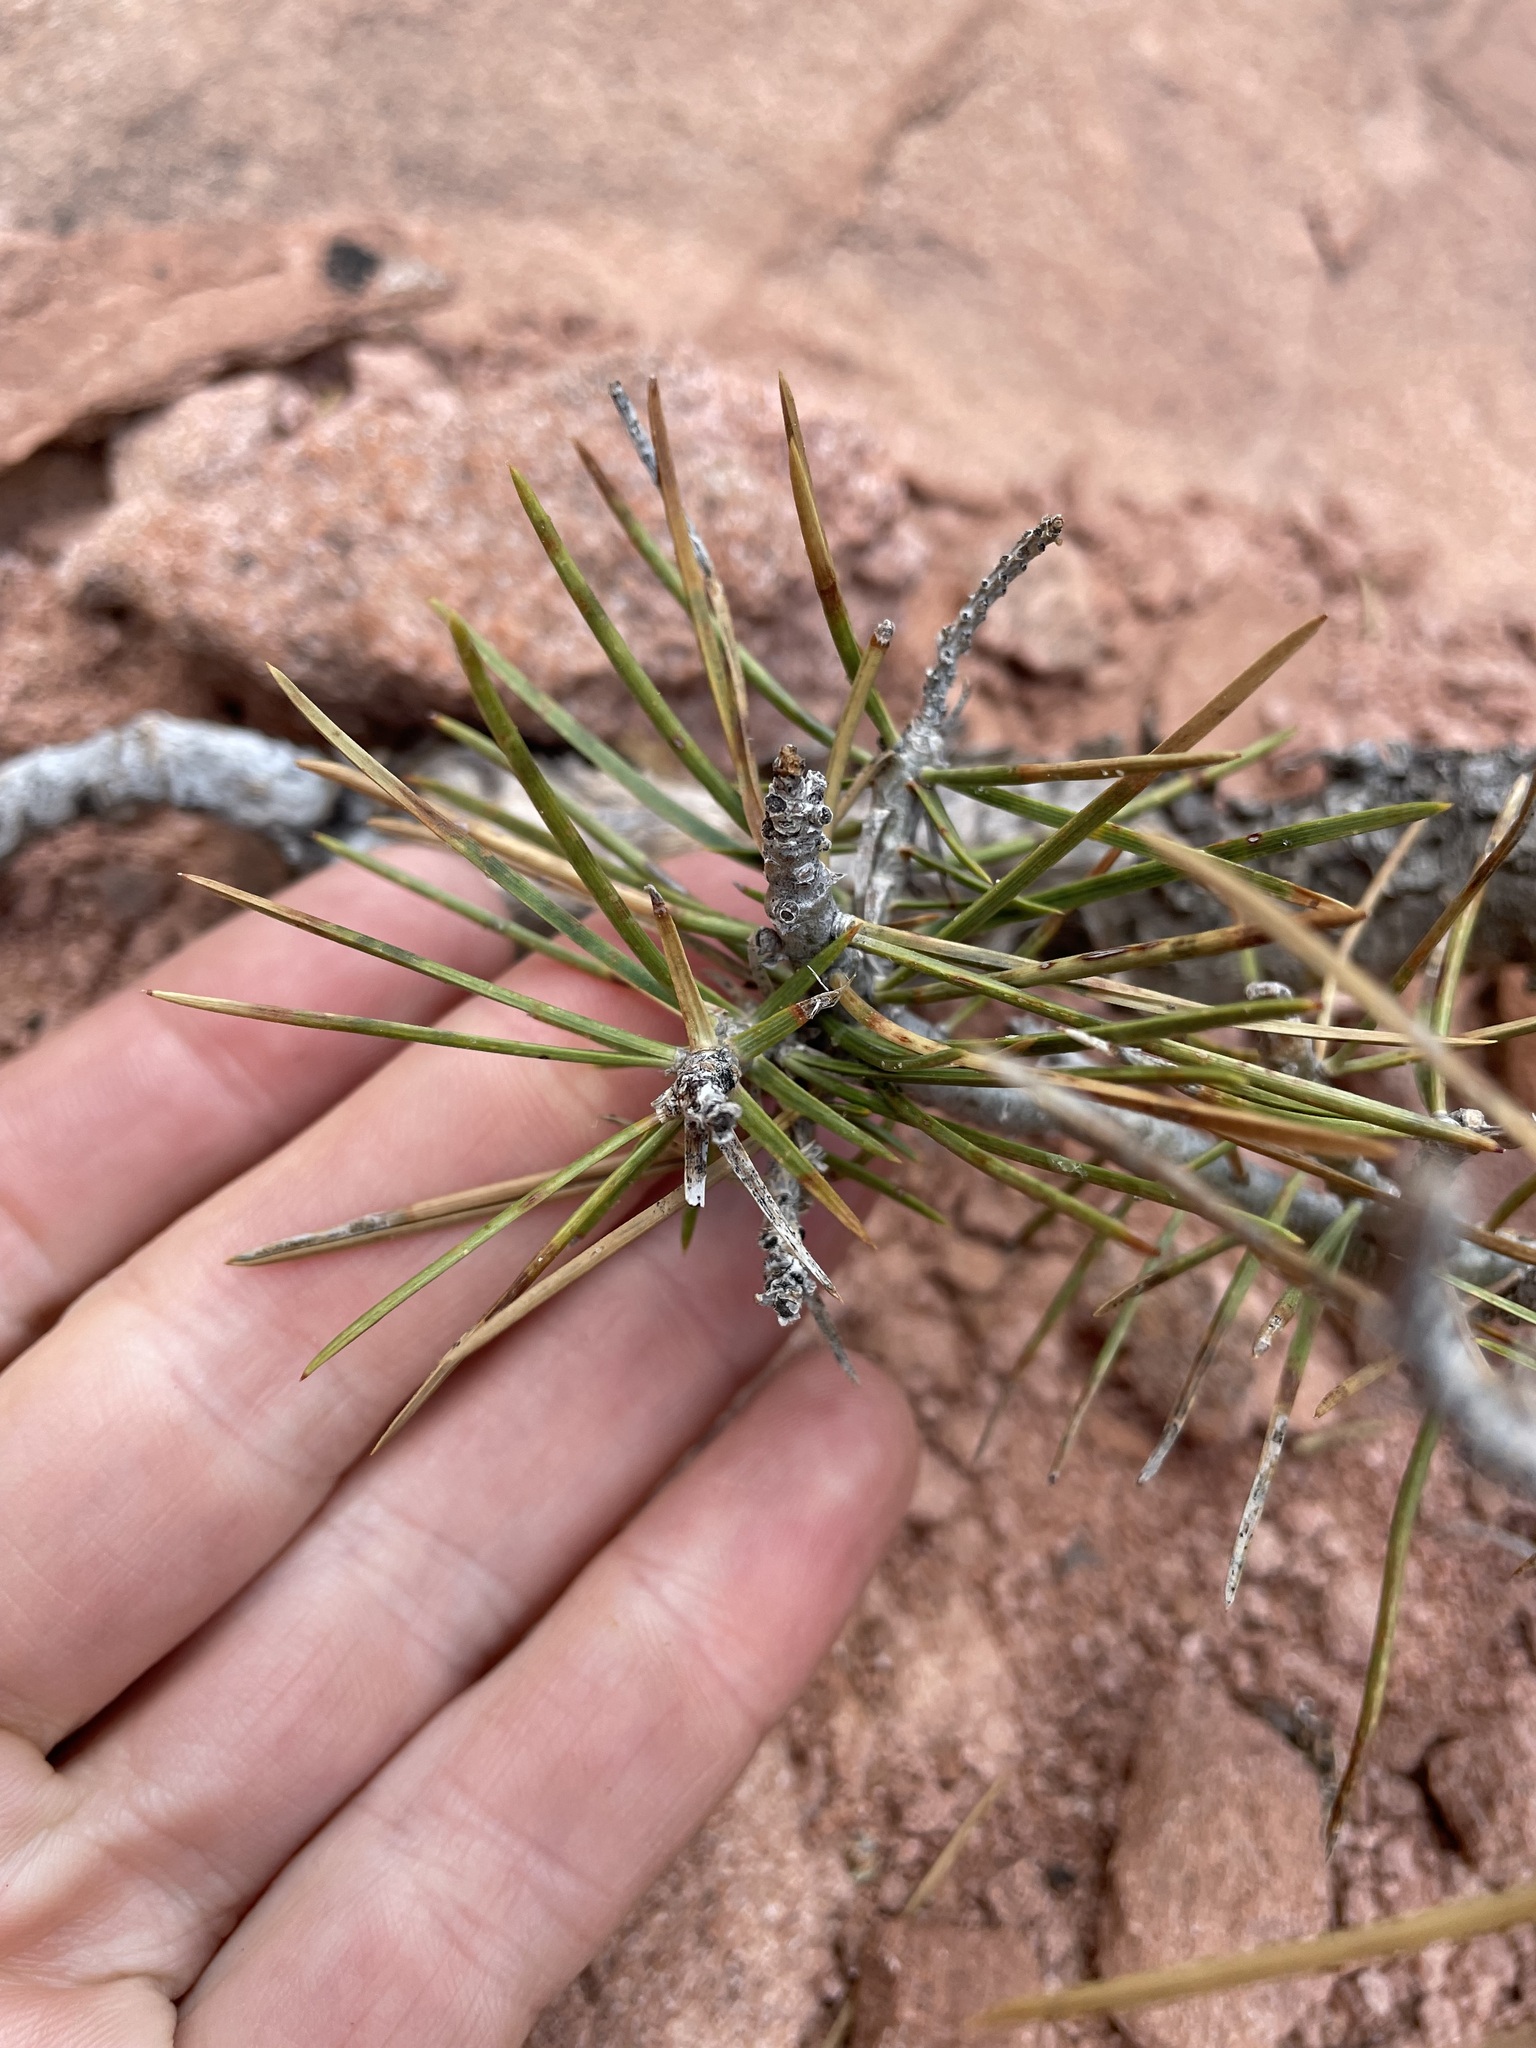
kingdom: Plantae
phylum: Tracheophyta
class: Pinopsida
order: Pinales
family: Pinaceae
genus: Pinus
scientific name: Pinus edulis
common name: Colorado pinyon
